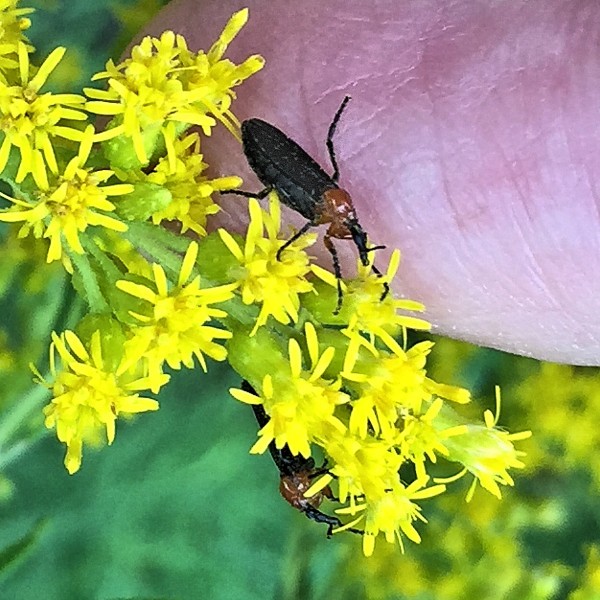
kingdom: Animalia
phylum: Arthropoda
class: Insecta
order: Diptera
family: Bibionidae
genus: Dilophus
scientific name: Dilophus spinipes
